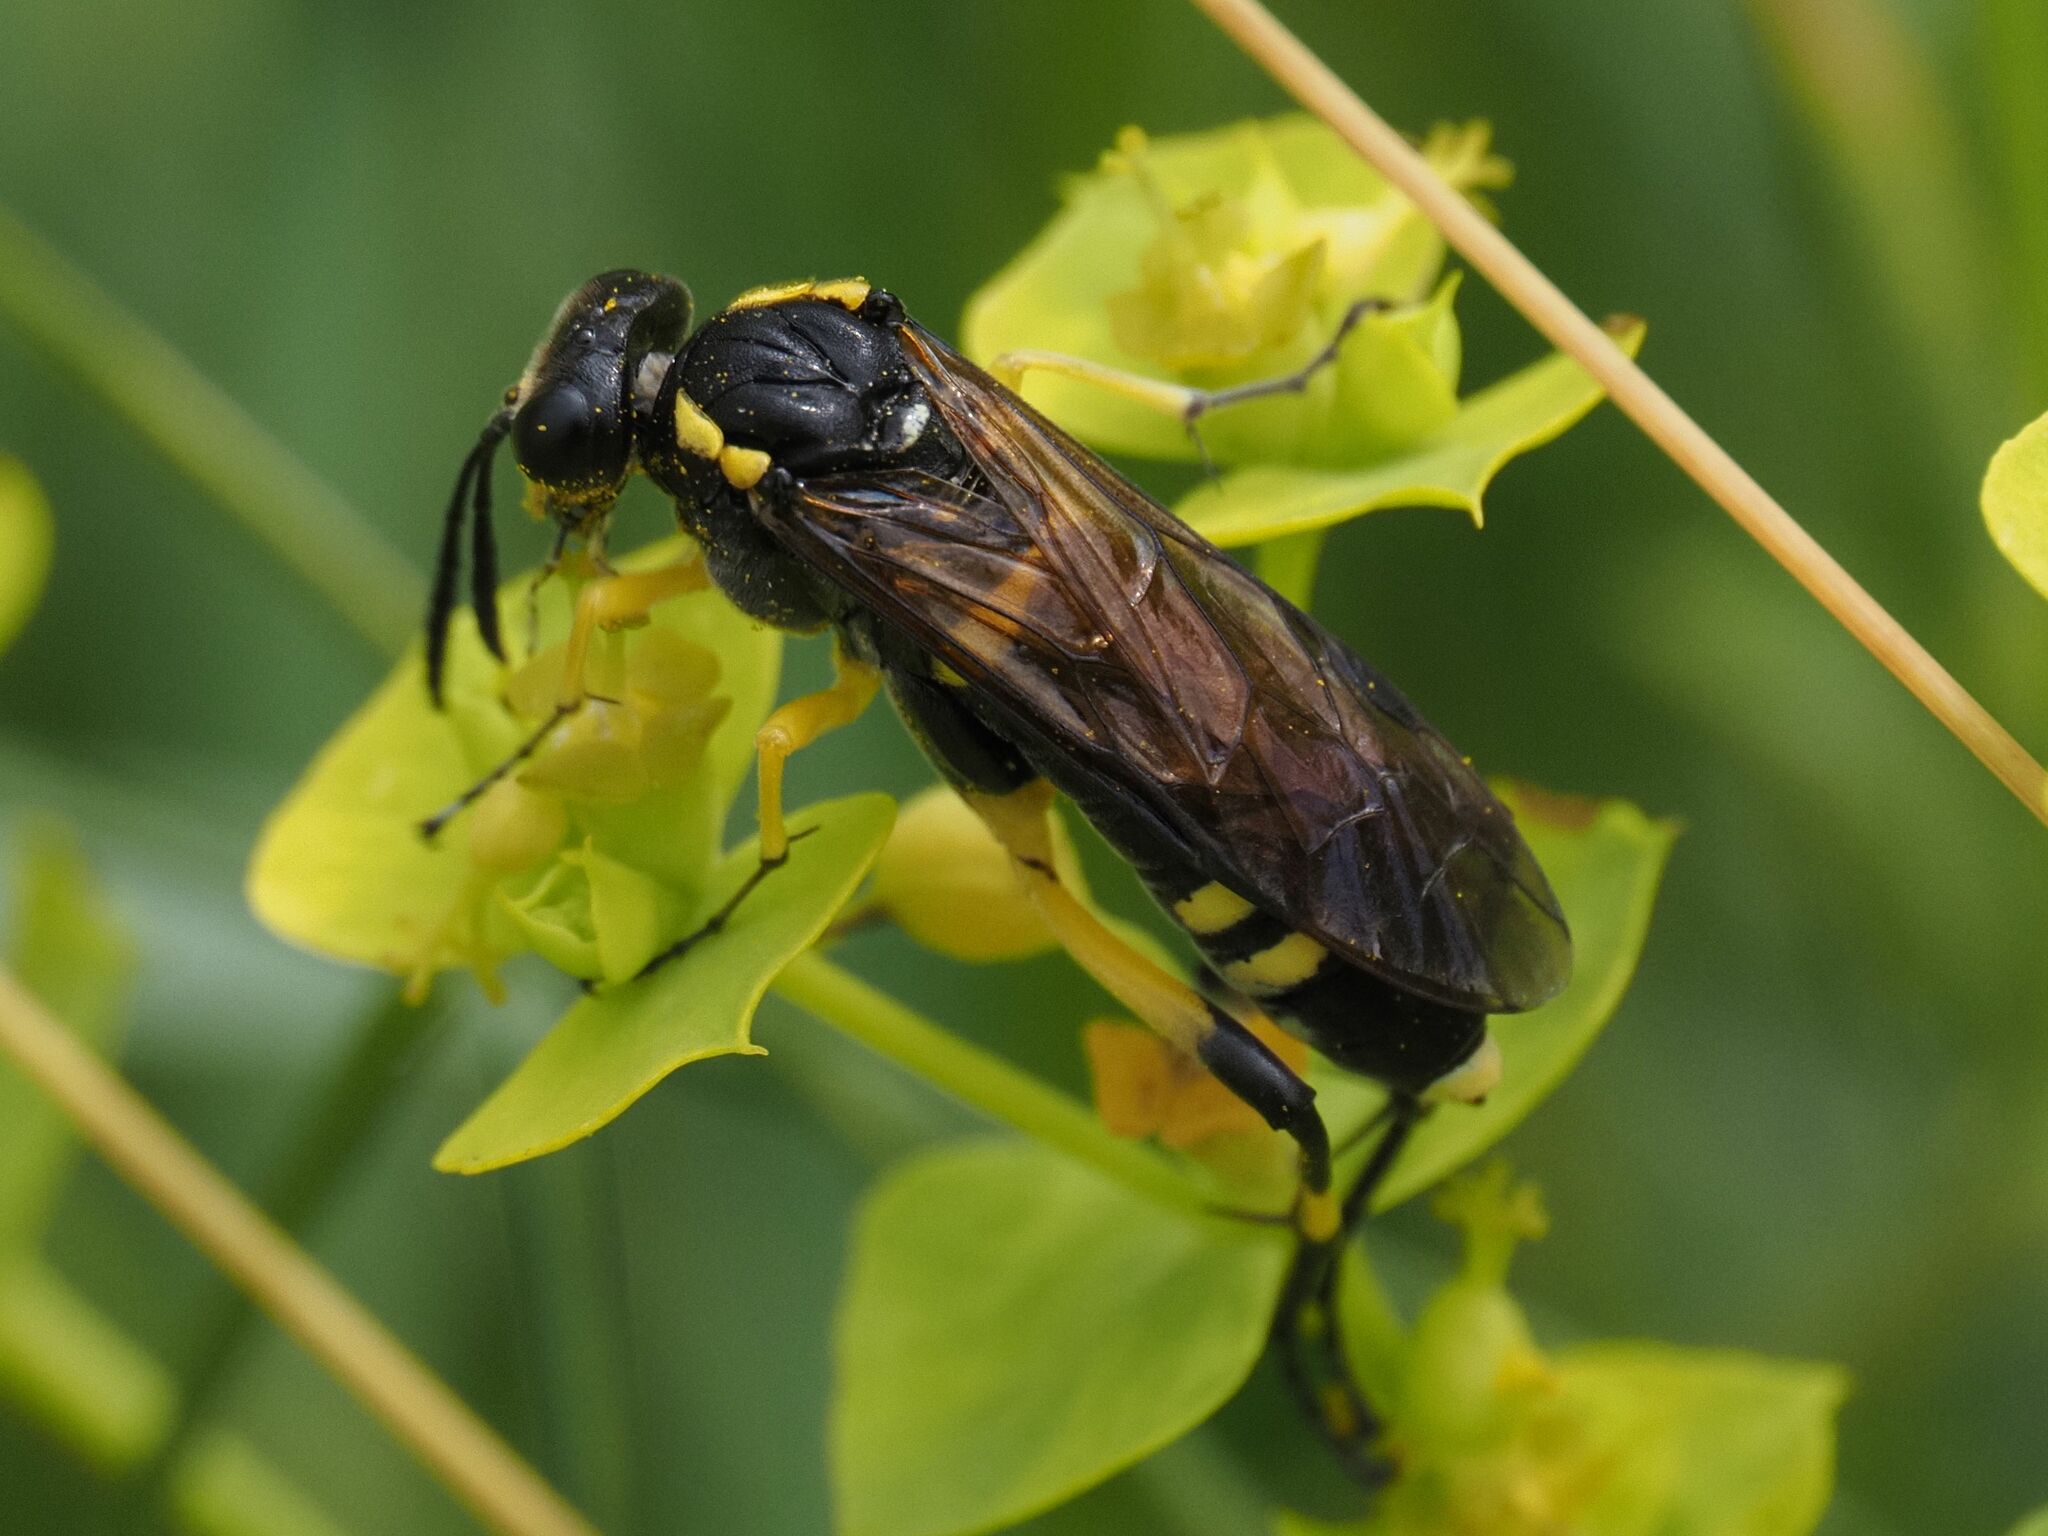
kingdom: Animalia
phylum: Arthropoda
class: Insecta
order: Hymenoptera
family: Tenthredinidae
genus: Macrophya
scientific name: Macrophya montana
